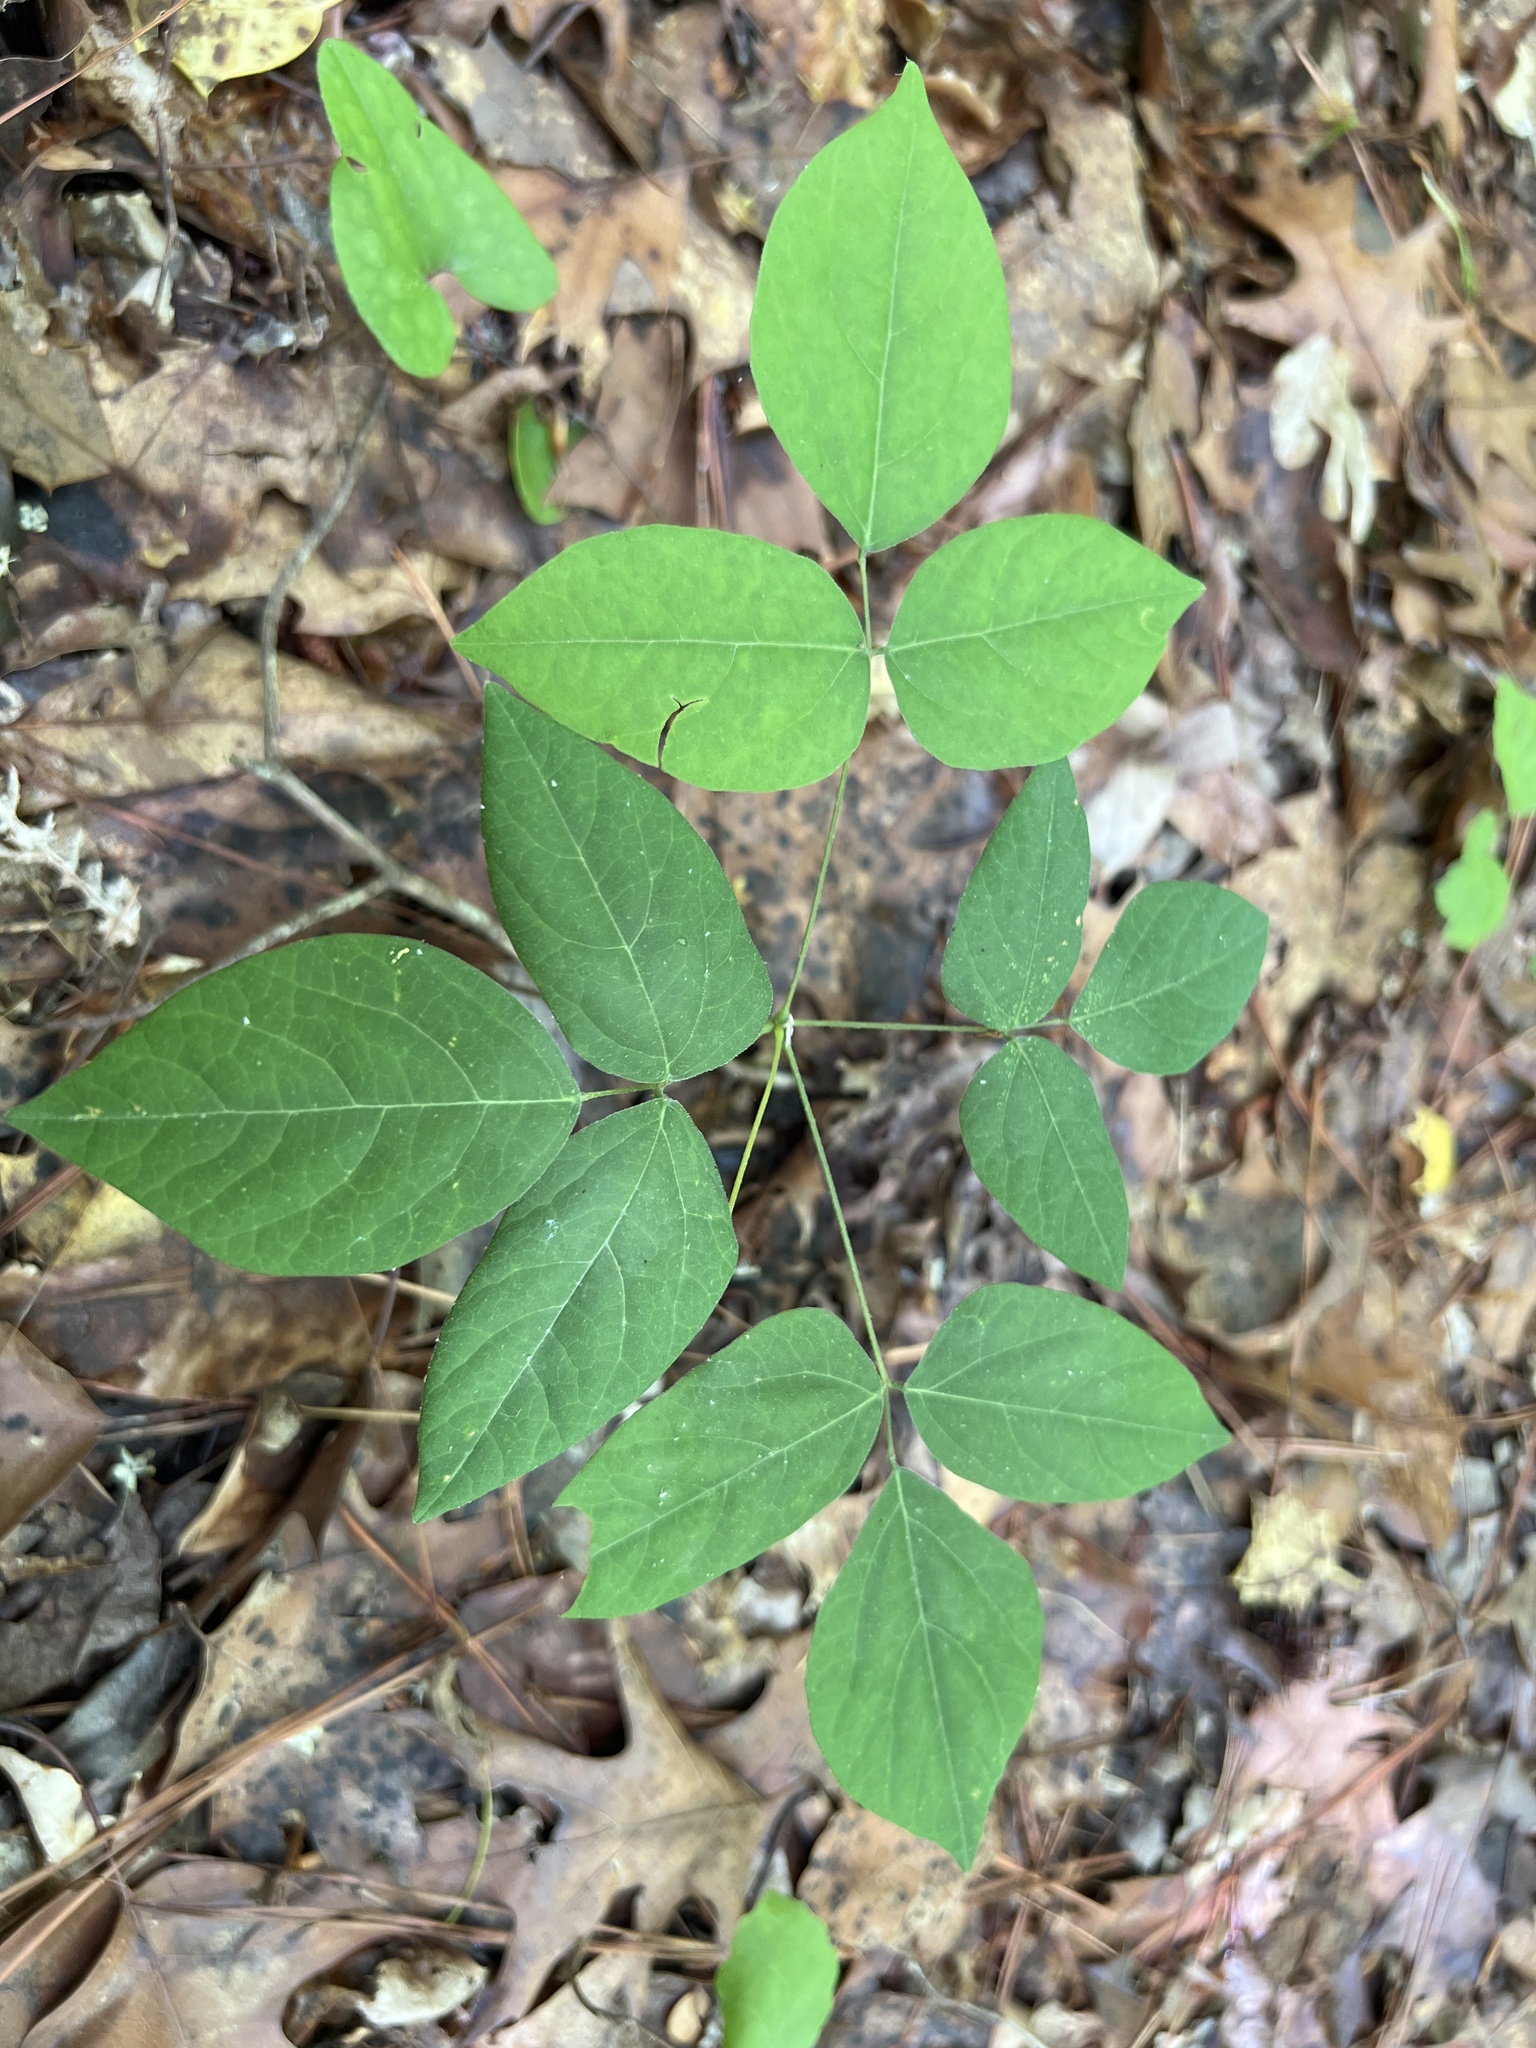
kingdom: Plantae
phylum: Tracheophyta
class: Magnoliopsida
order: Fabales
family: Fabaceae
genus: Hylodesmum
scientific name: Hylodesmum nudiflorum
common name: Bare-stemmed tick-trefoil
